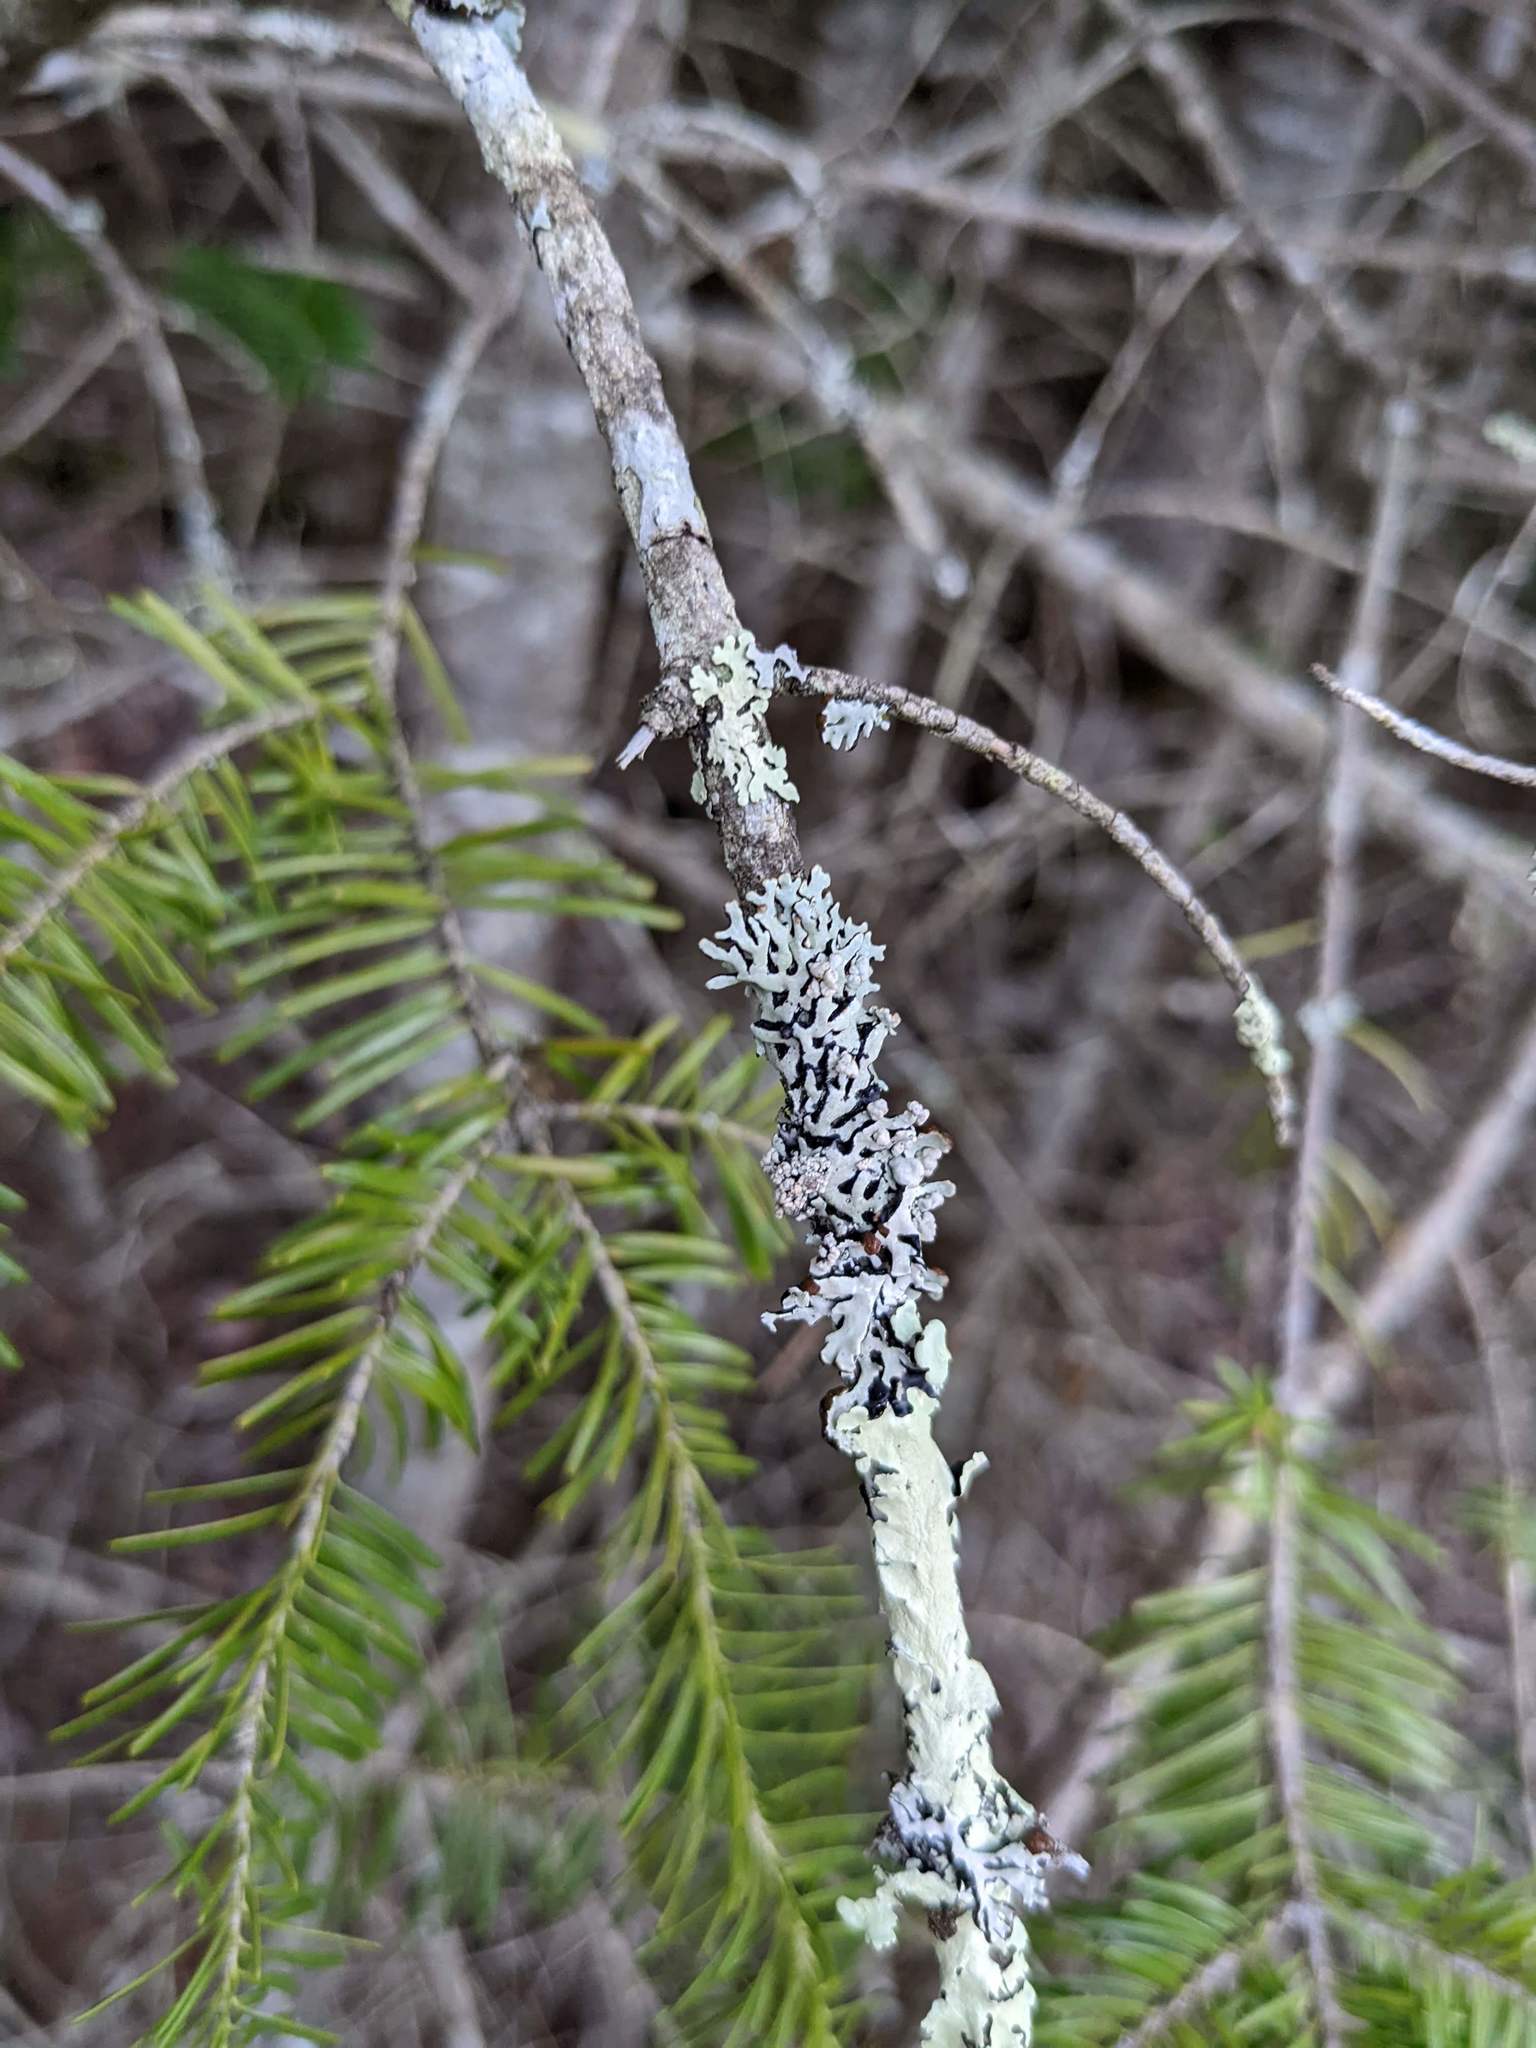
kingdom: Fungi
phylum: Ascomycota
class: Lecanoromycetes
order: Lecanorales
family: Parmeliaceae
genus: Hypogymnia
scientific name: Hypogymnia physodes
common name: Dark crottle
